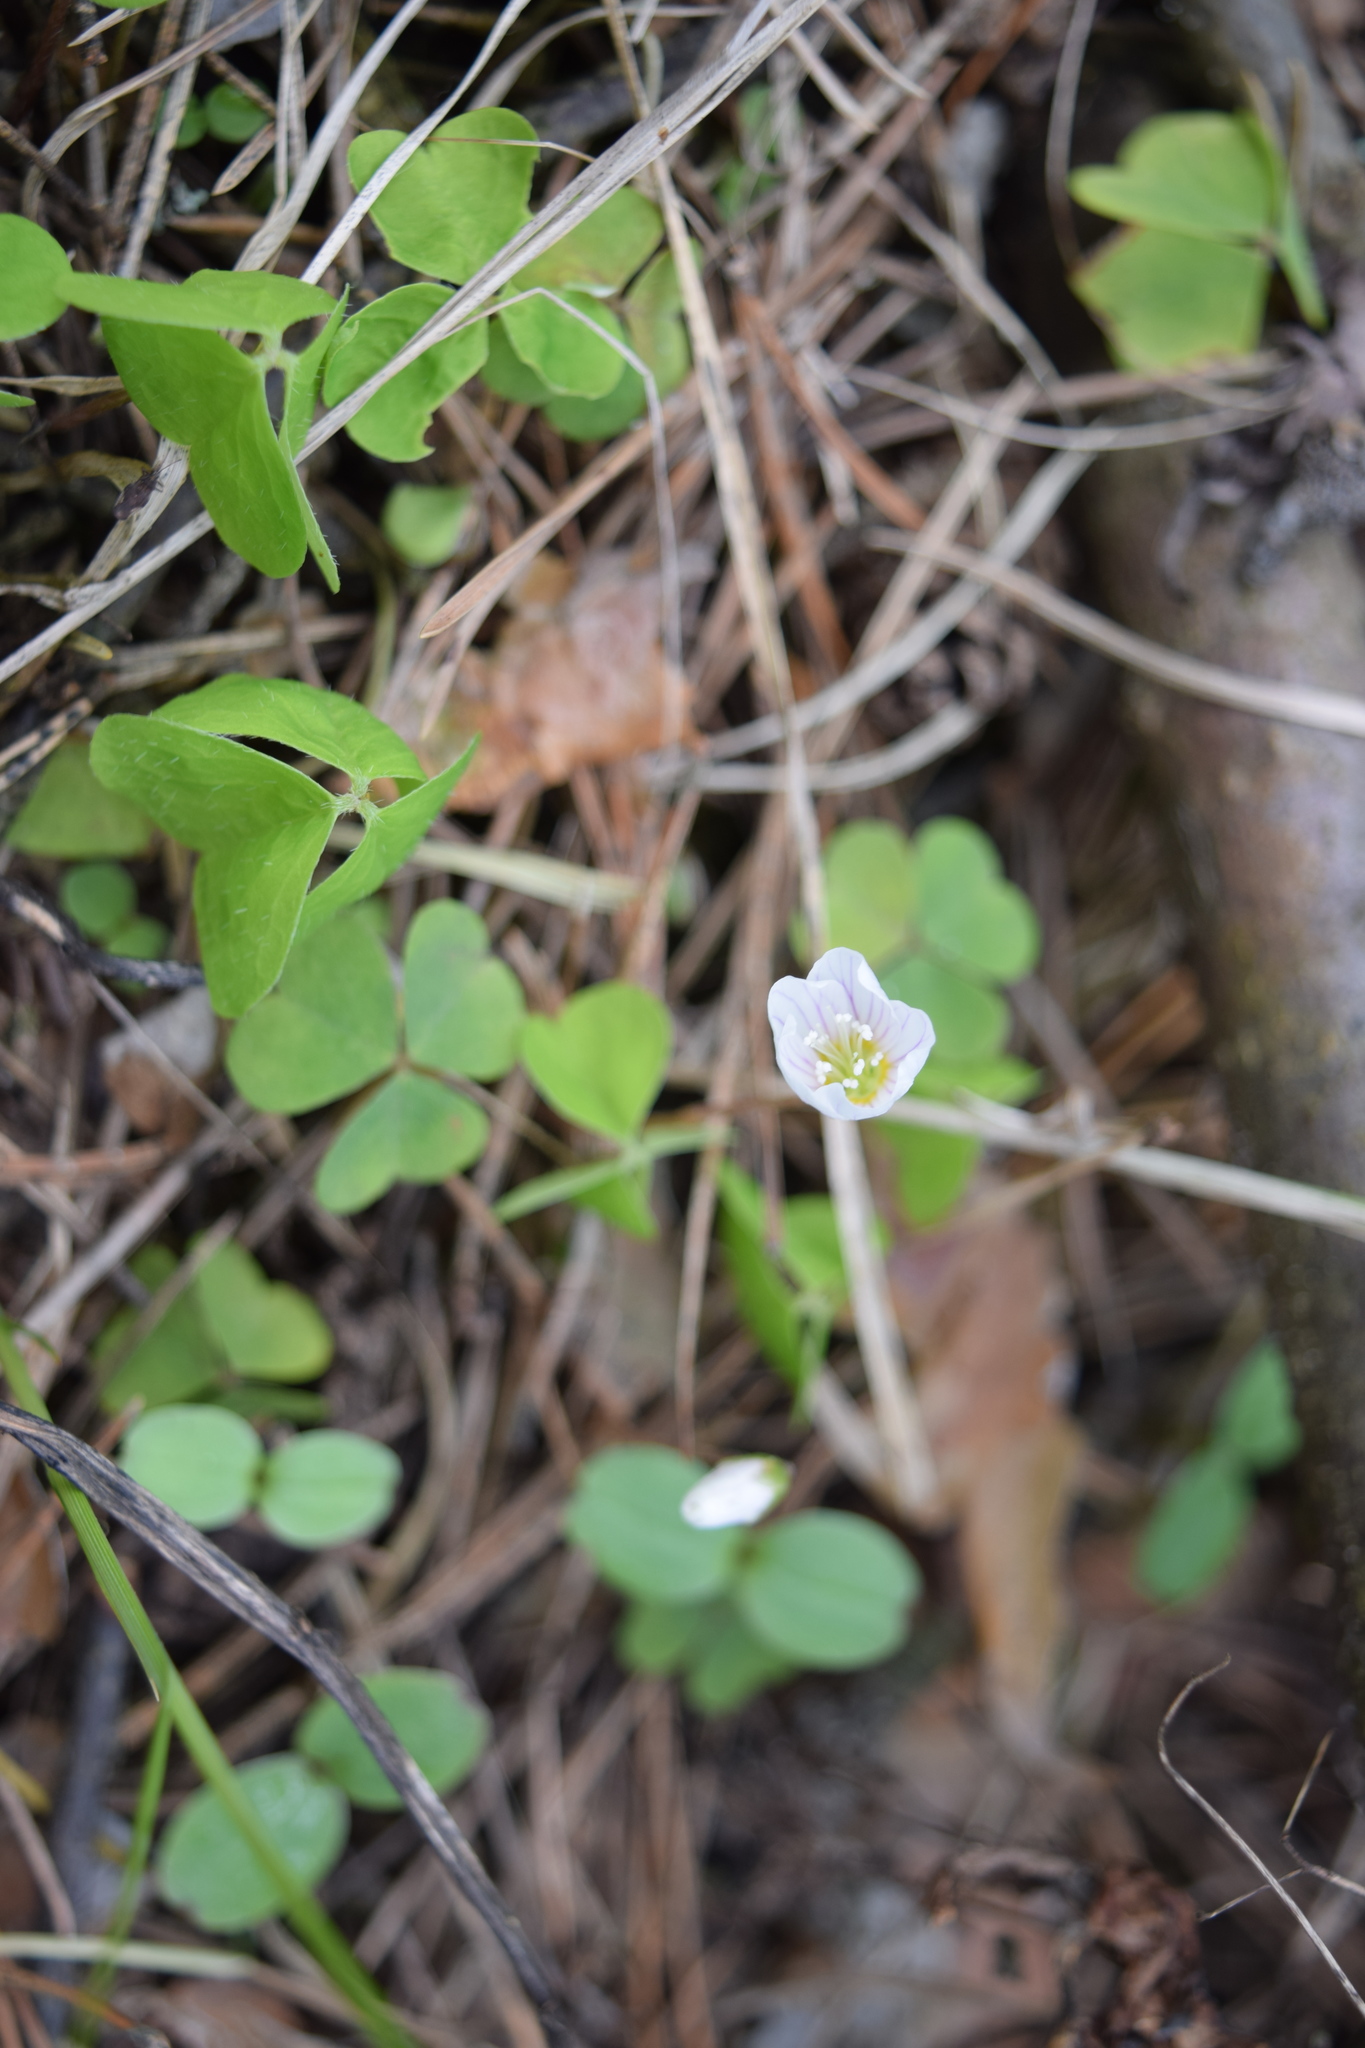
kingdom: Plantae
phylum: Tracheophyta
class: Magnoliopsida
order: Oxalidales
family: Oxalidaceae
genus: Oxalis
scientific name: Oxalis acetosella
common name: Wood-sorrel
